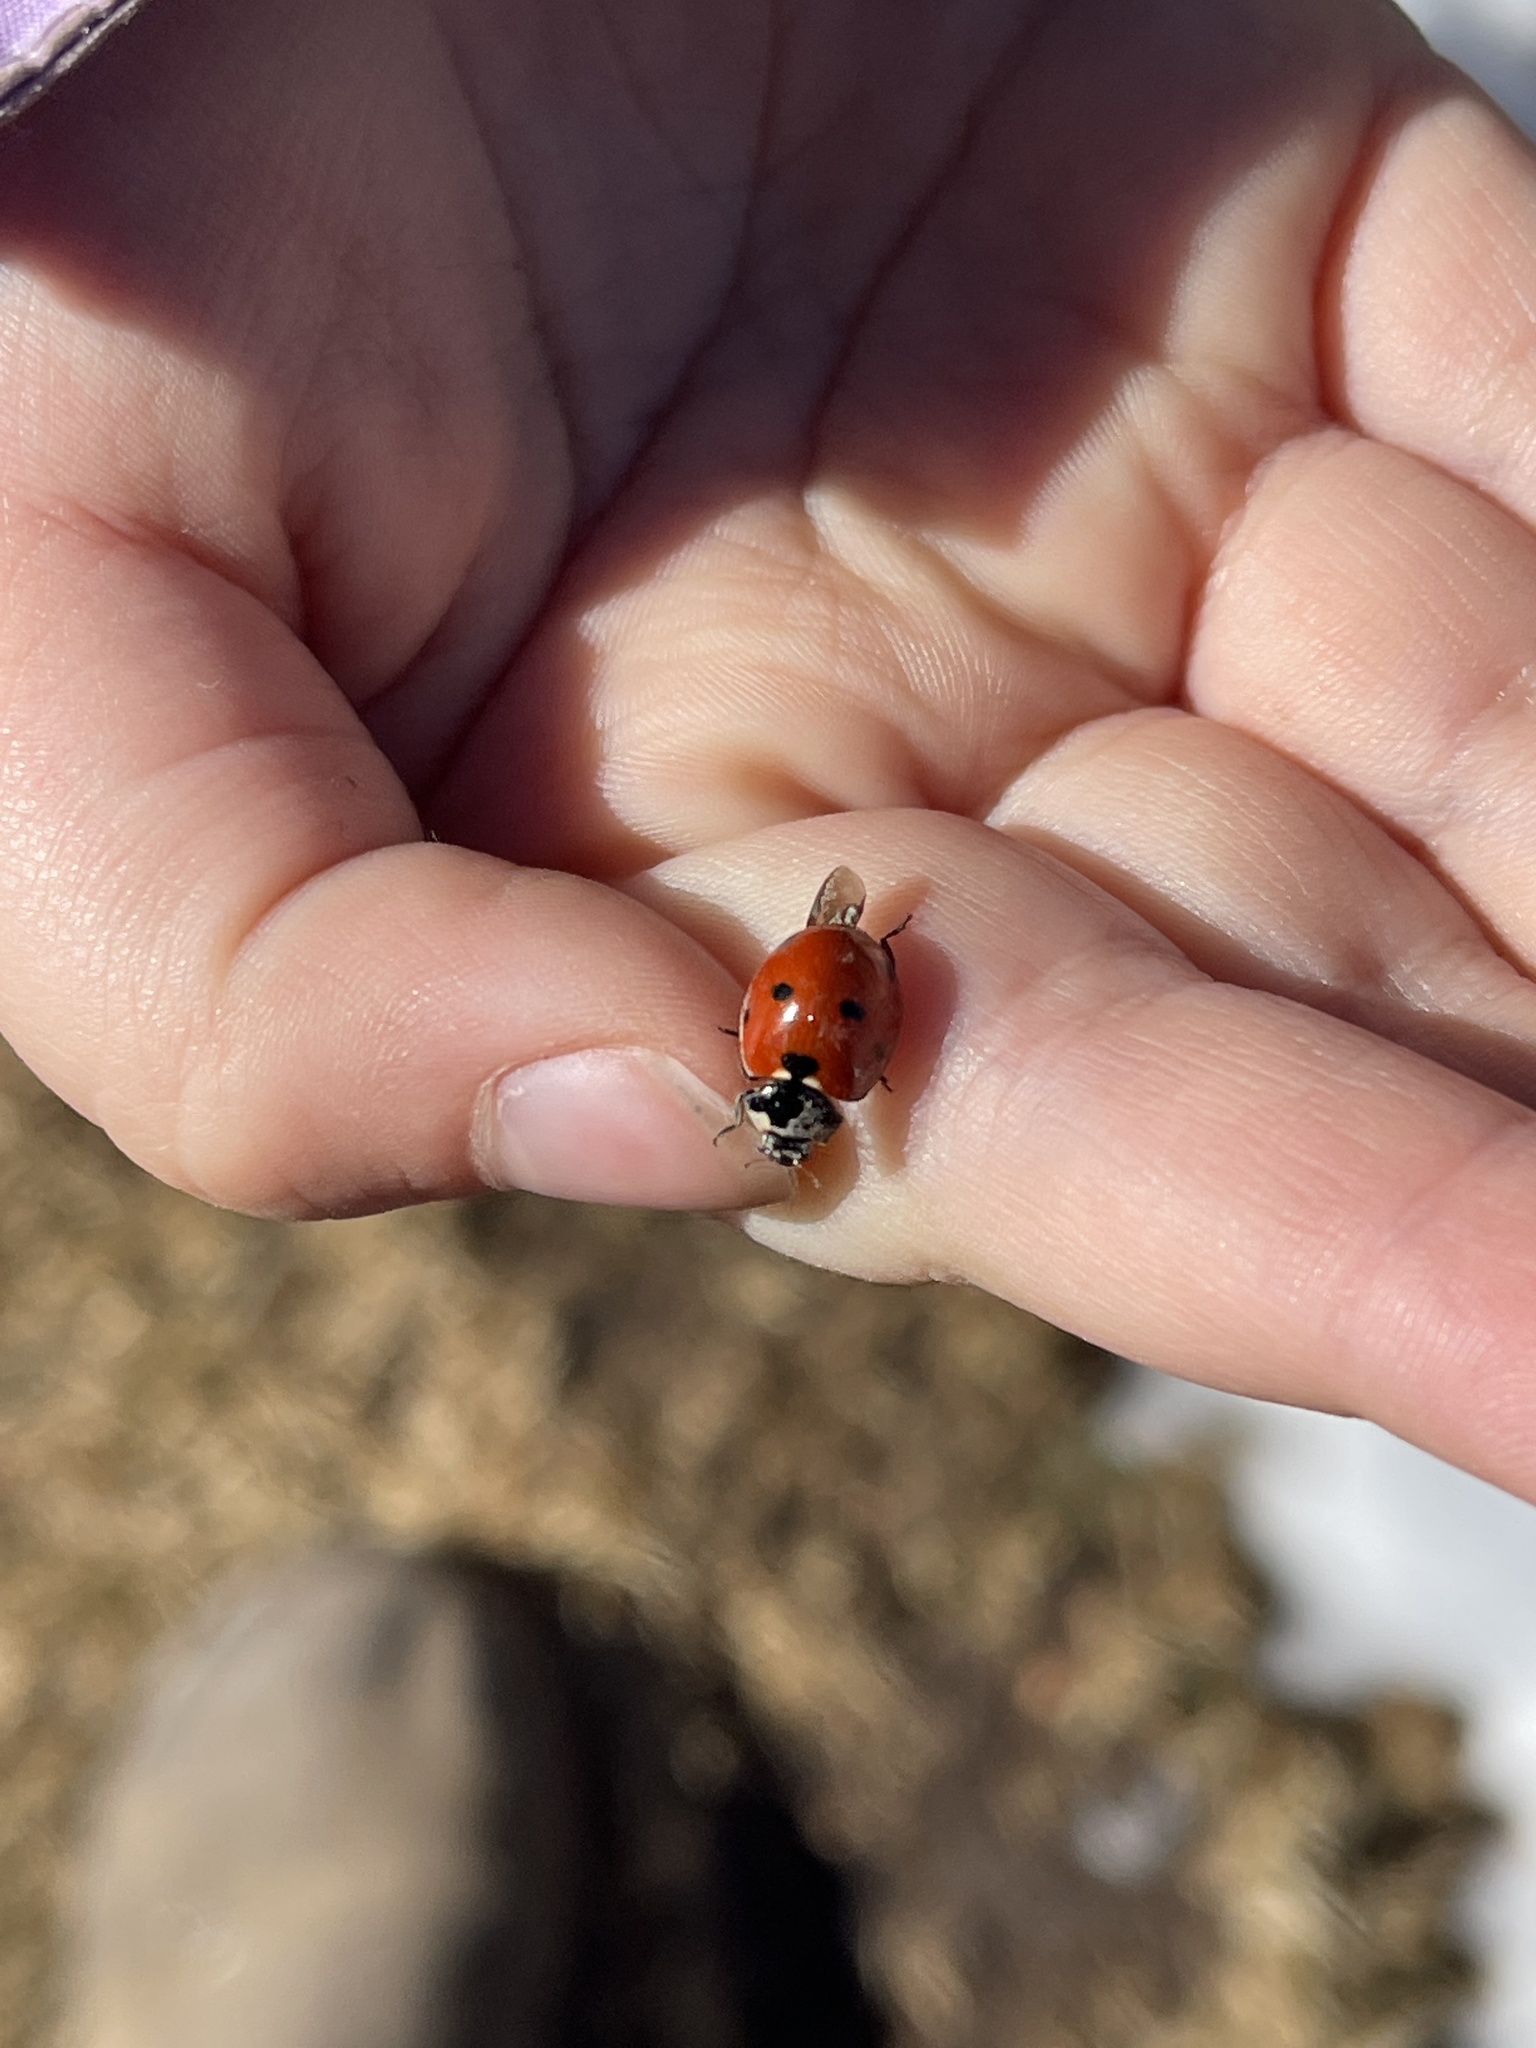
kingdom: Animalia
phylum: Arthropoda
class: Insecta
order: Coleoptera
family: Coccinellidae
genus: Coccinella
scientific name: Coccinella septempunctata
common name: Sevenspotted lady beetle
